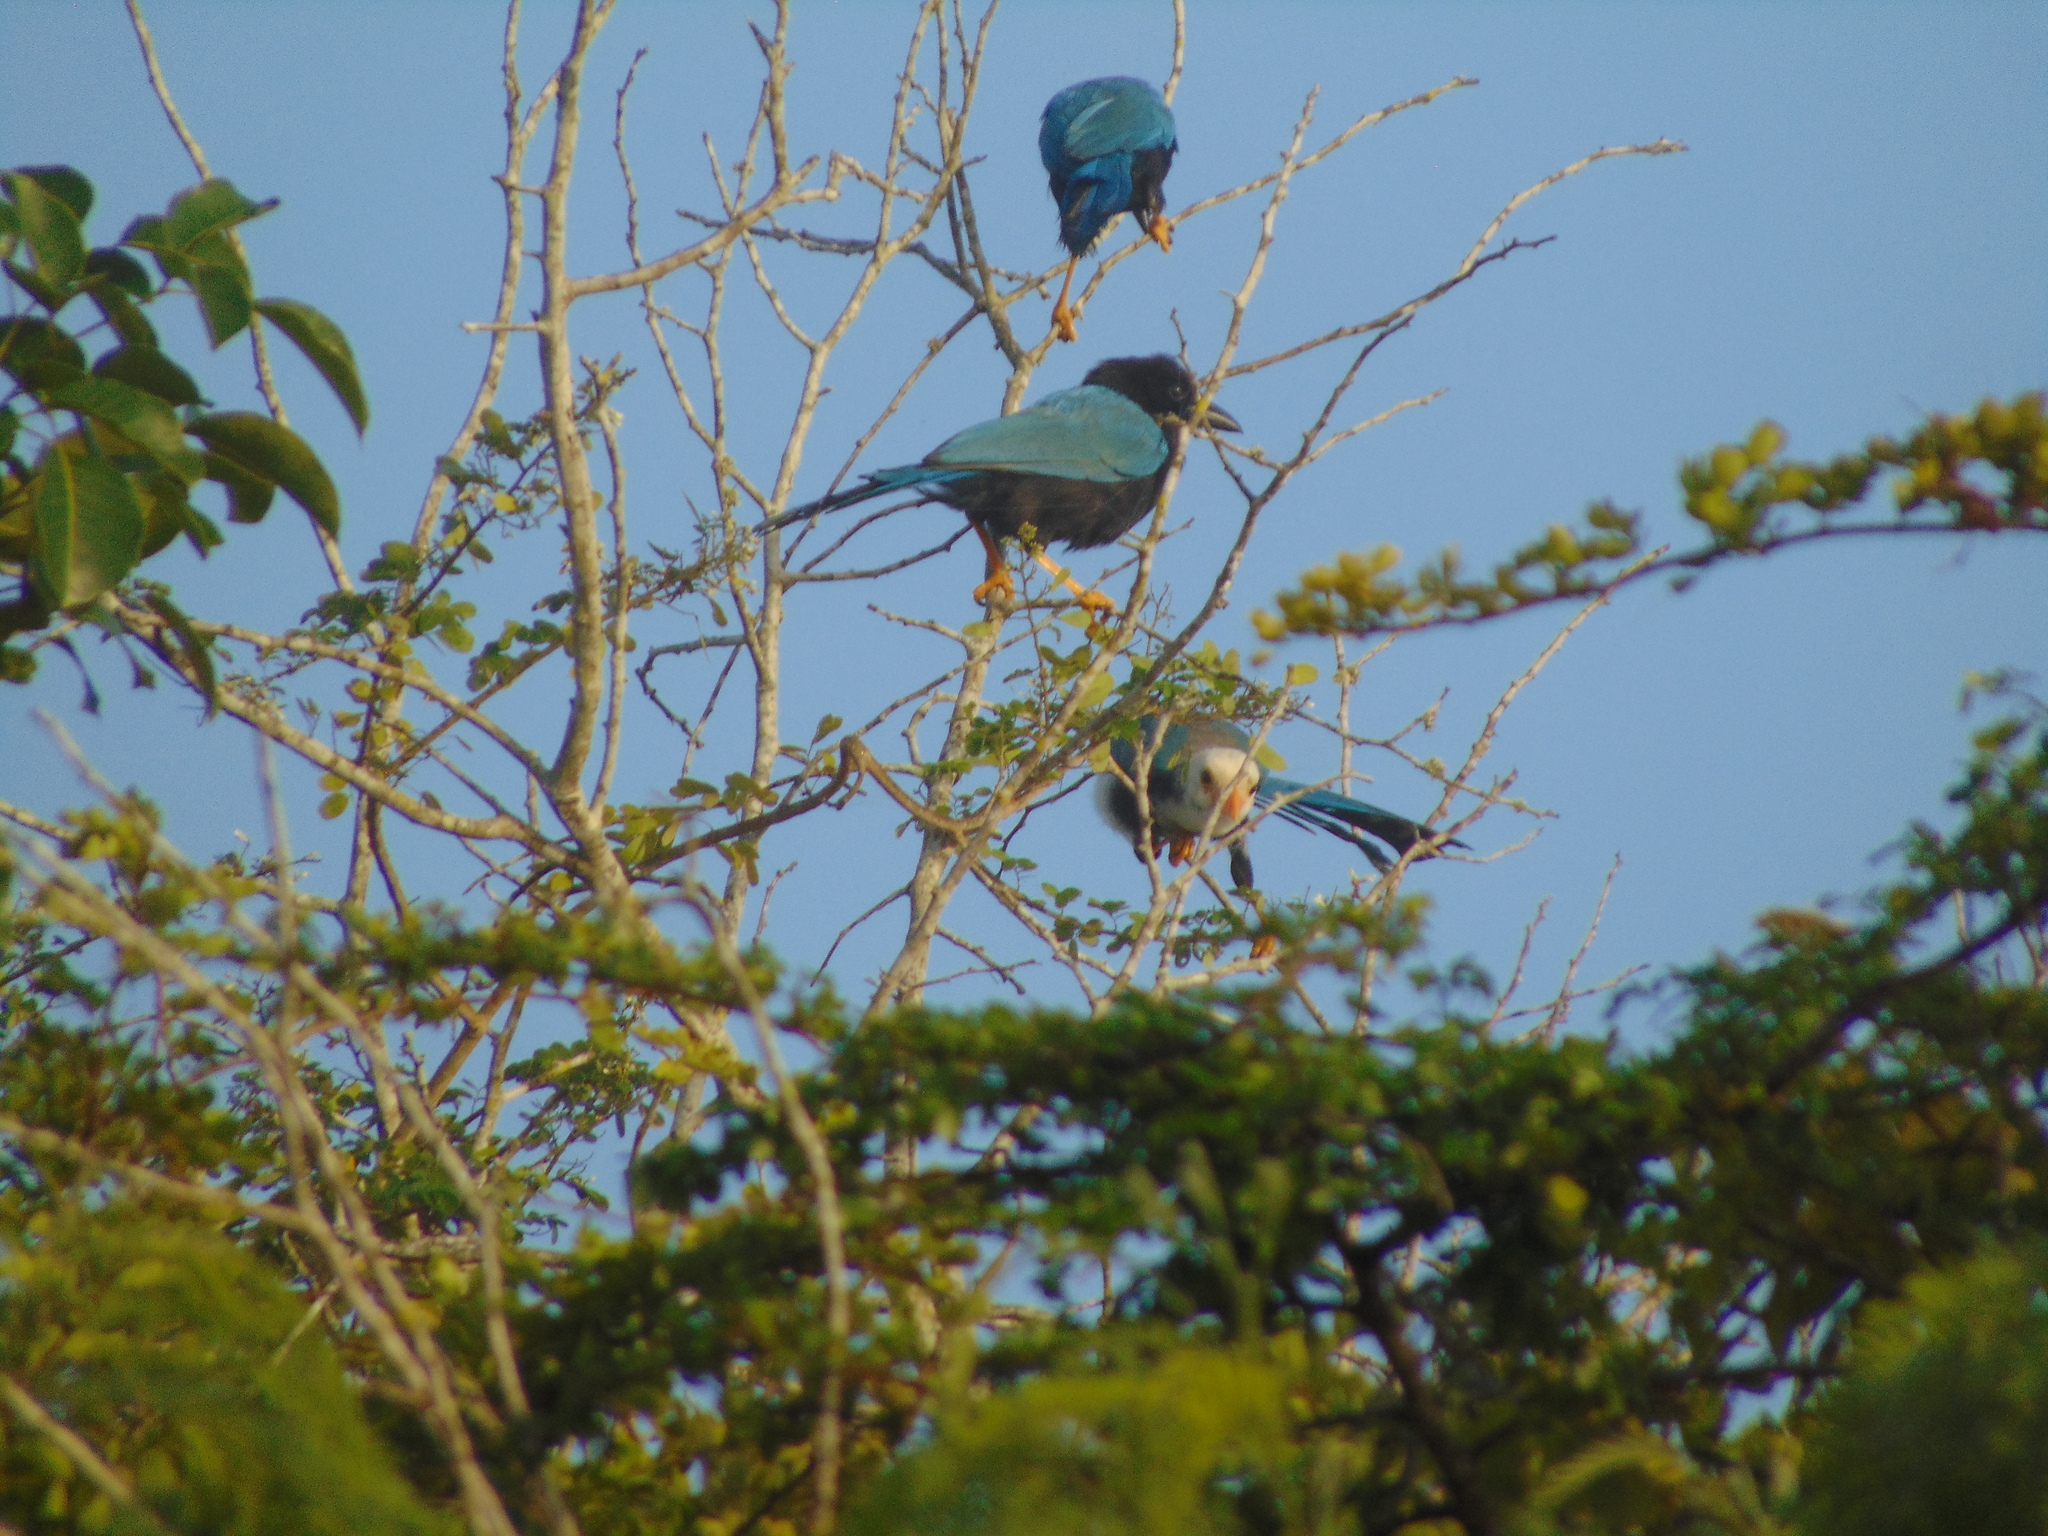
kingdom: Animalia
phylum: Chordata
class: Aves
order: Passeriformes
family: Corvidae
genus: Cyanocorax
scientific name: Cyanocorax yucatanicus
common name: Yucatan jay
